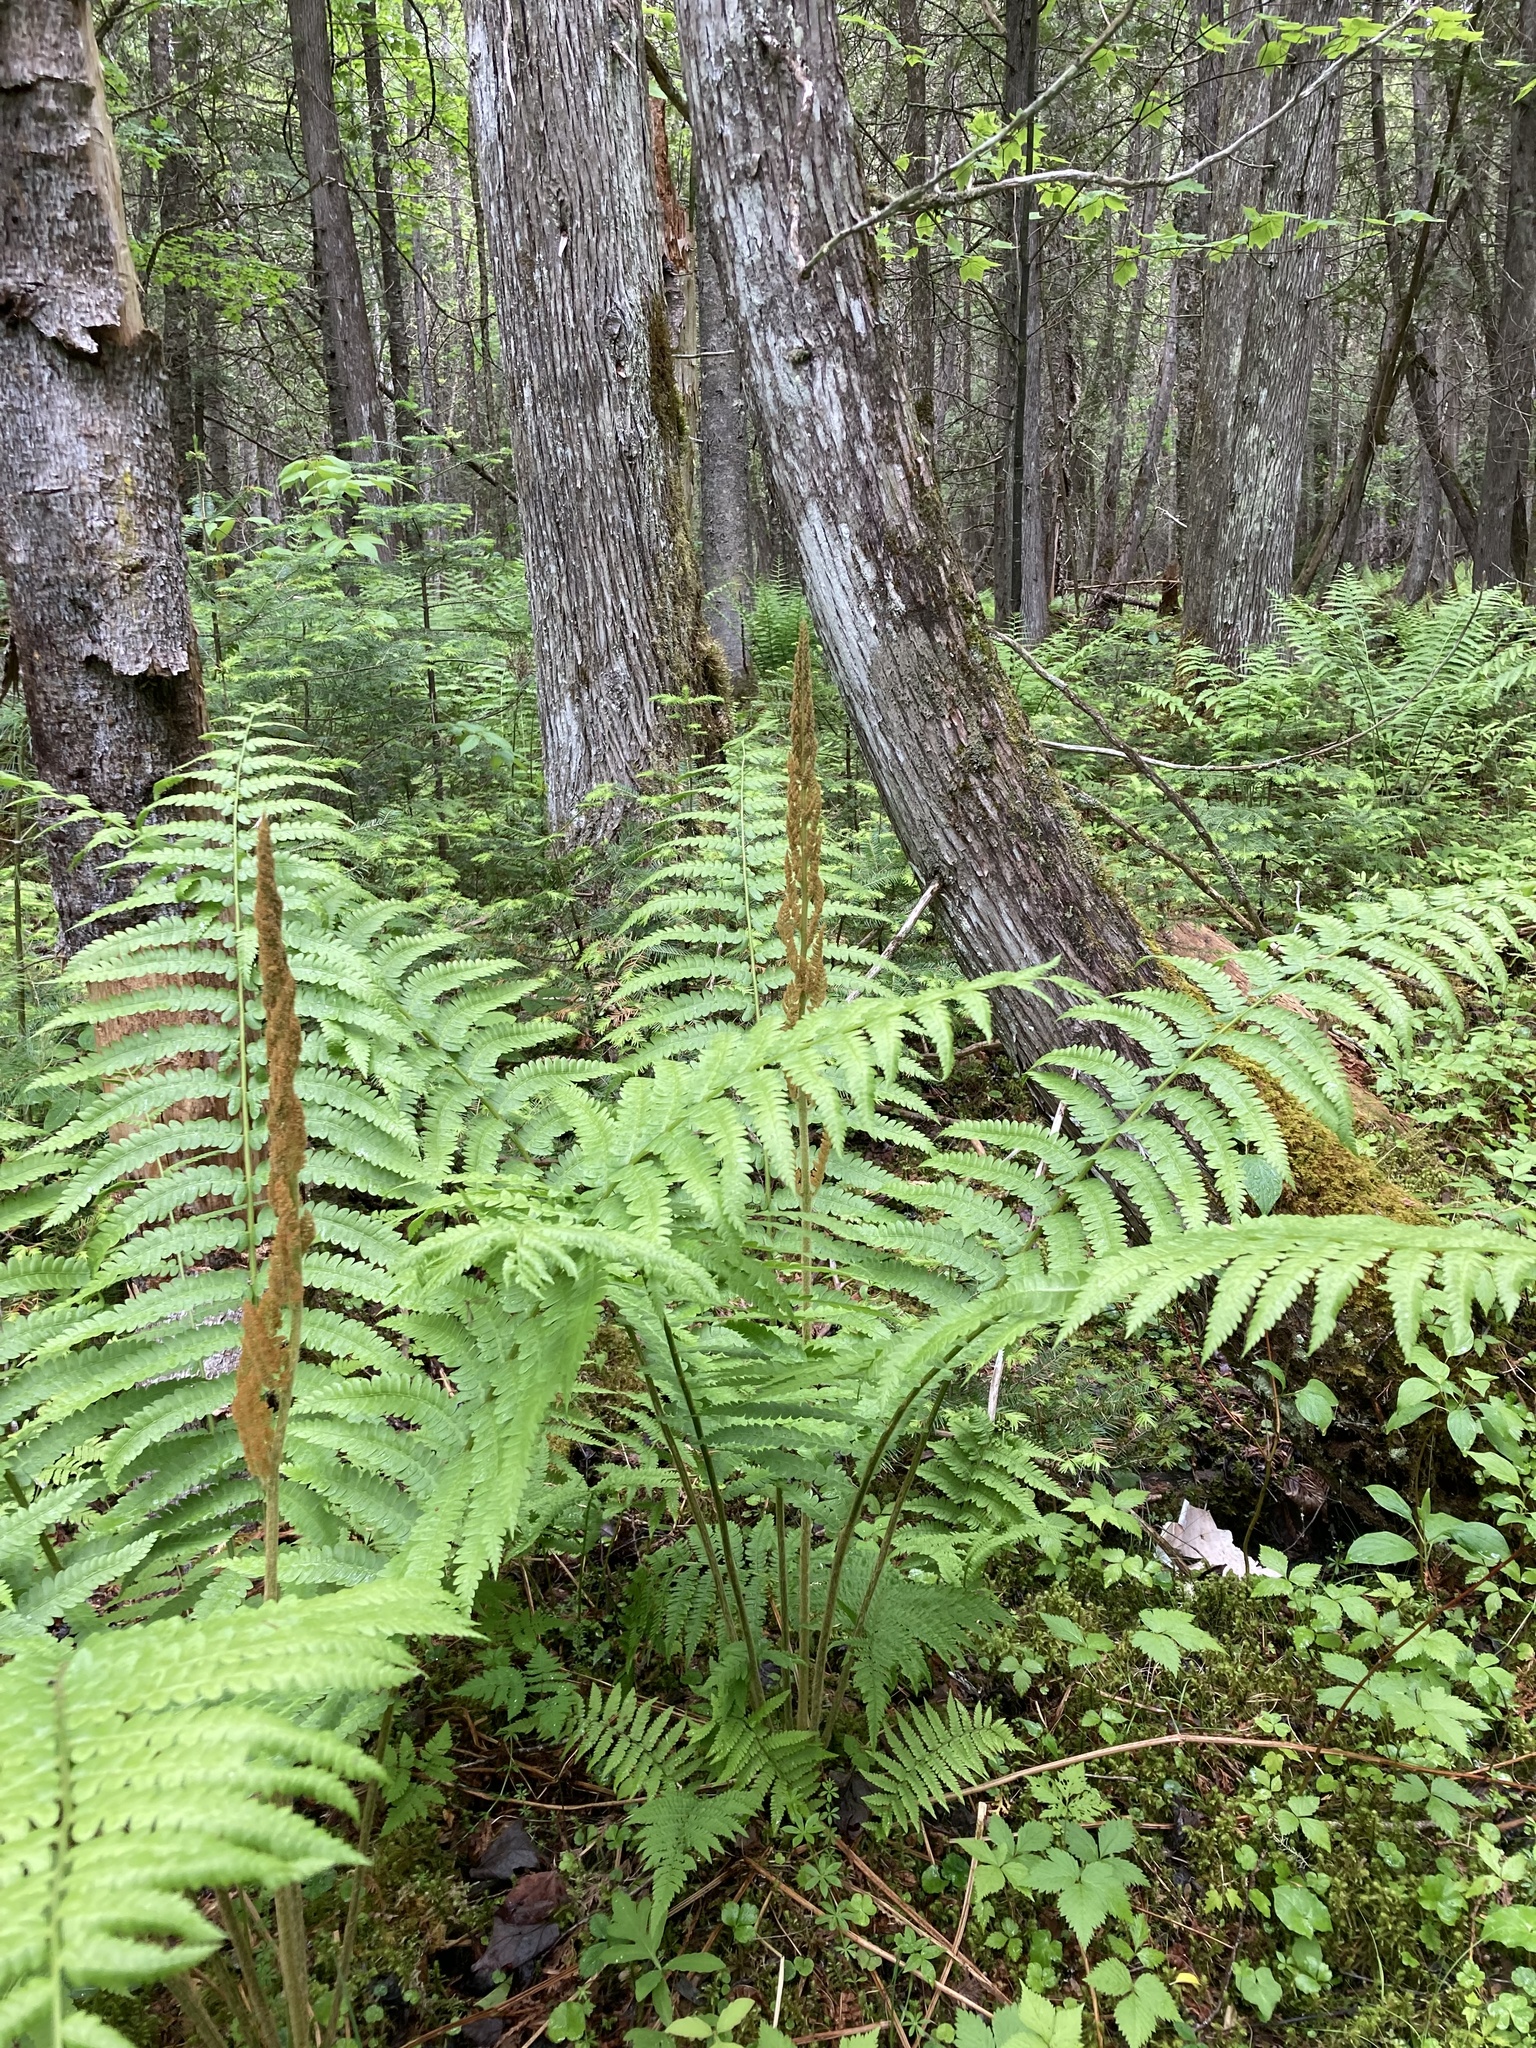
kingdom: Plantae
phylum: Tracheophyta
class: Polypodiopsida
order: Osmundales
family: Osmundaceae
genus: Osmundastrum
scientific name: Osmundastrum cinnamomeum
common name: Cinnamon fern
